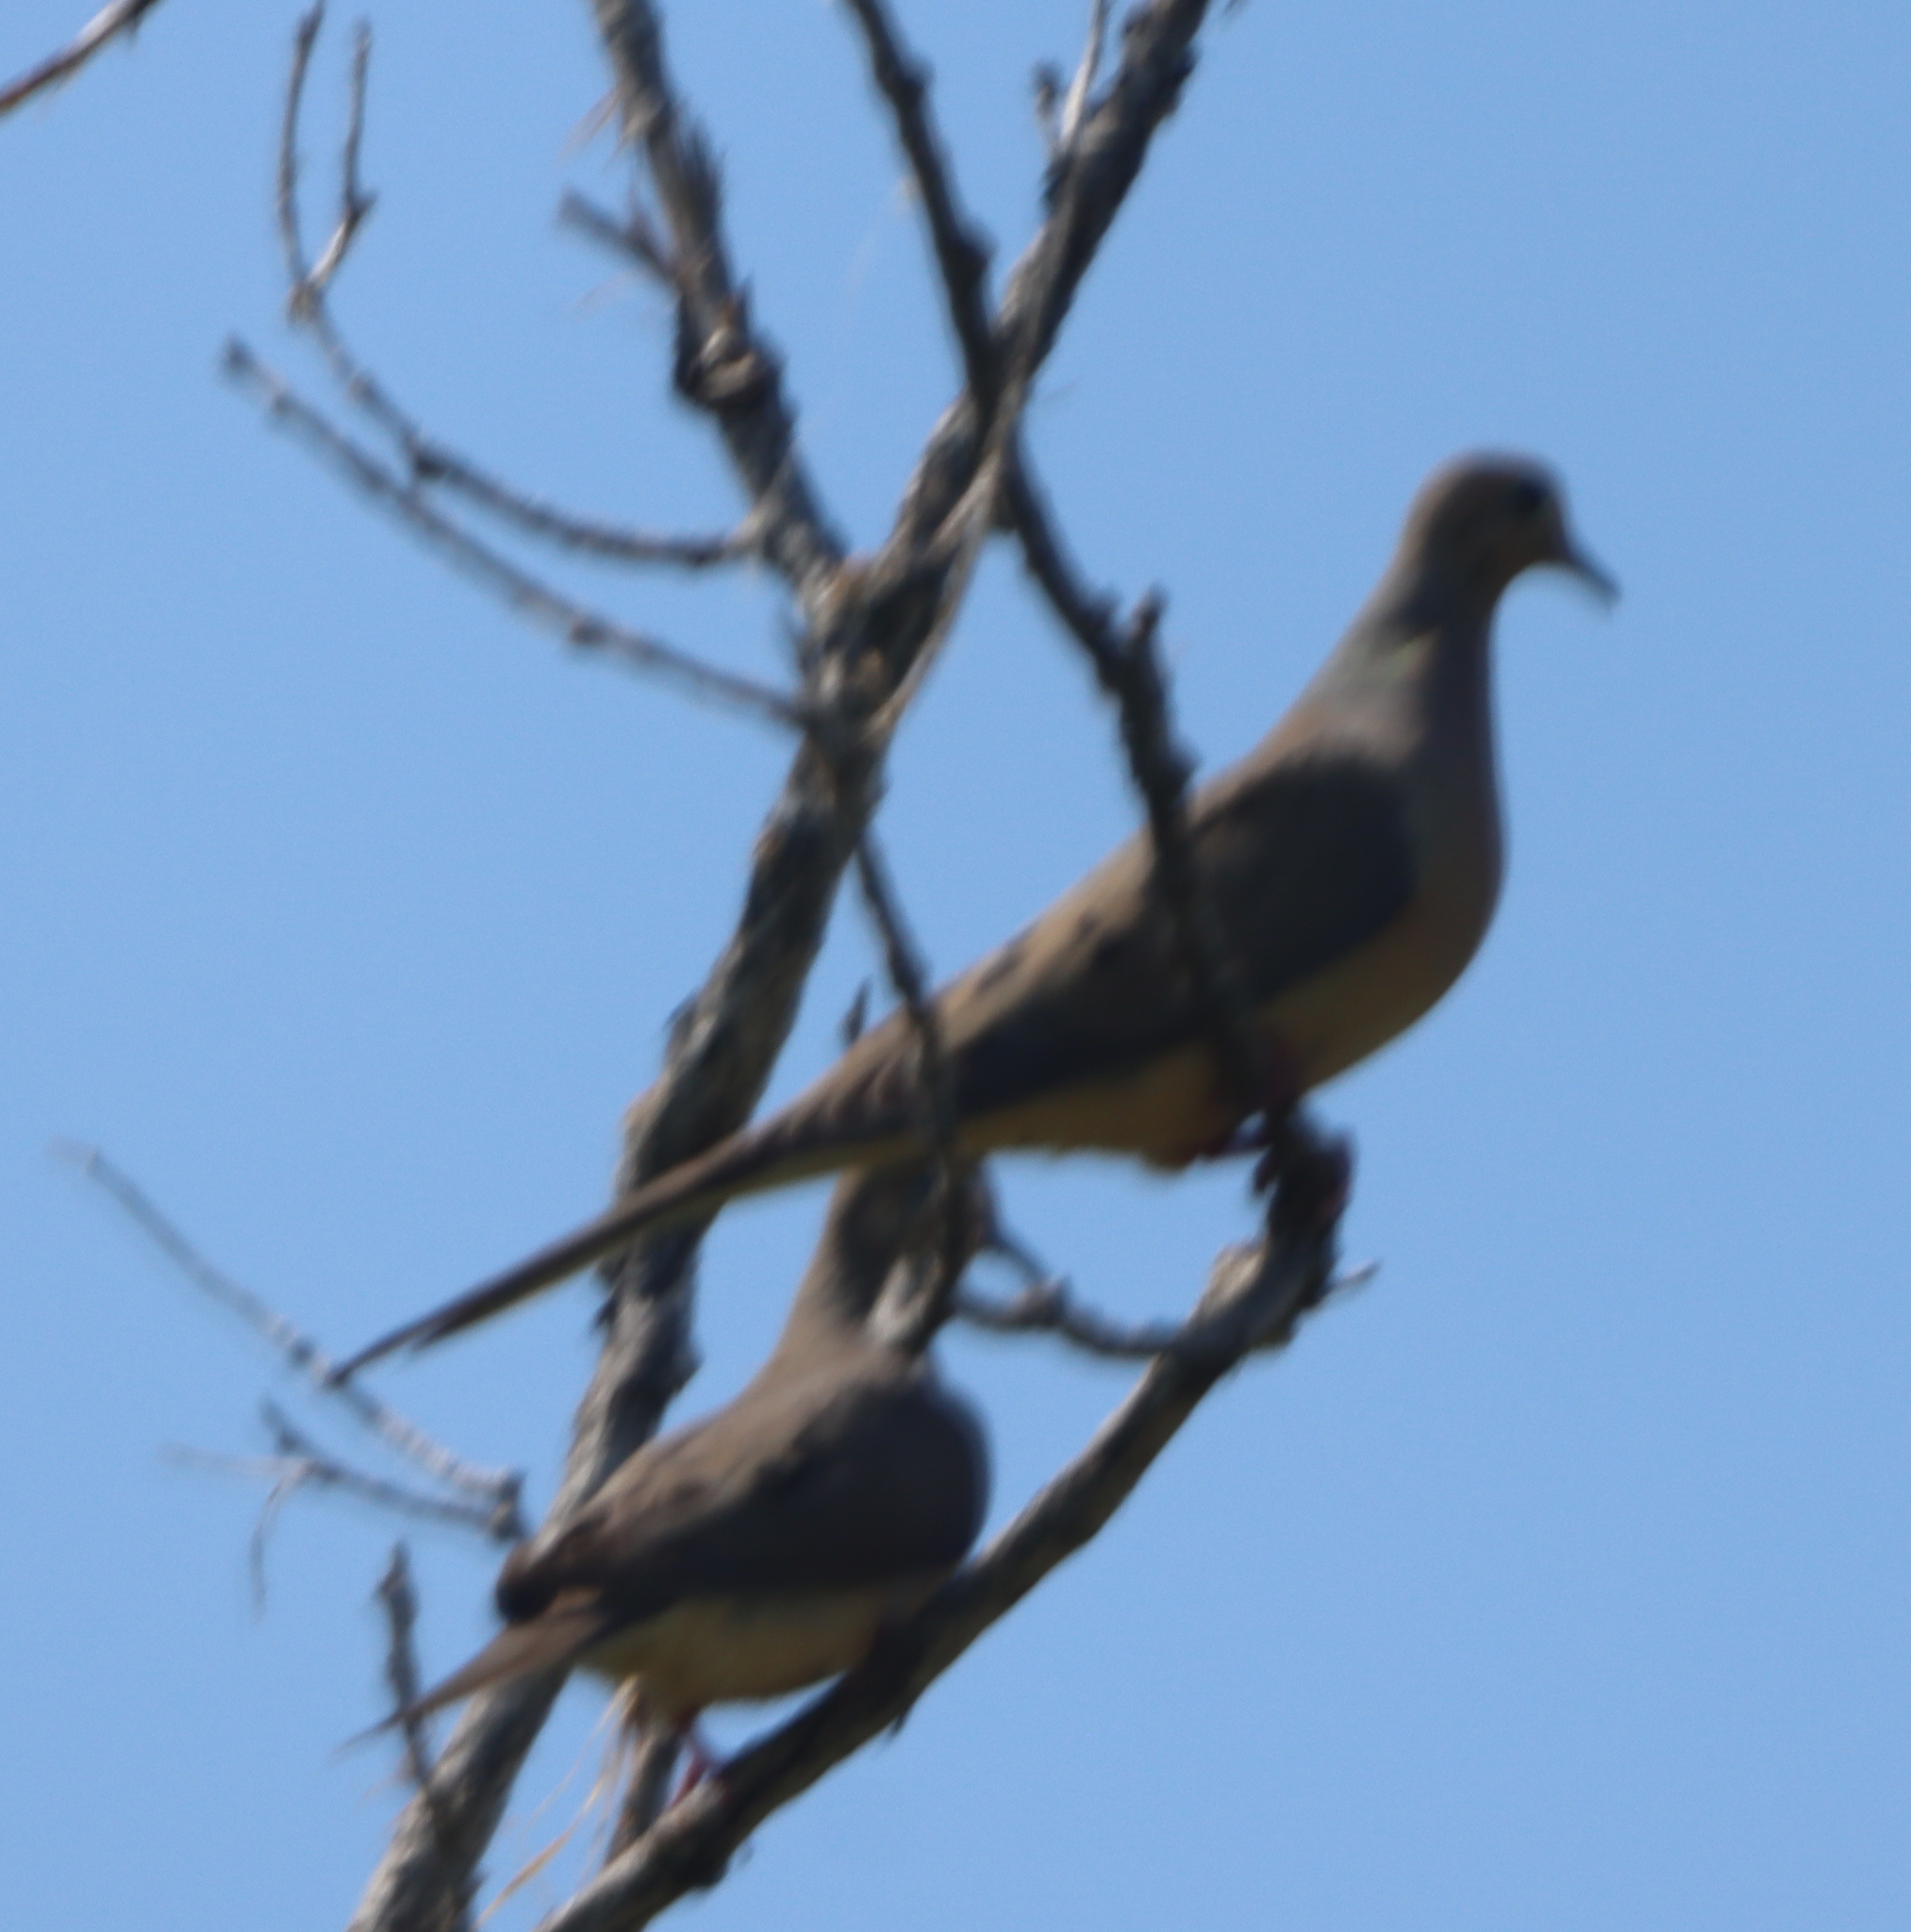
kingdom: Animalia
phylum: Chordata
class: Aves
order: Columbiformes
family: Columbidae
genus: Zenaida
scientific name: Zenaida macroura
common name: Mourning dove
